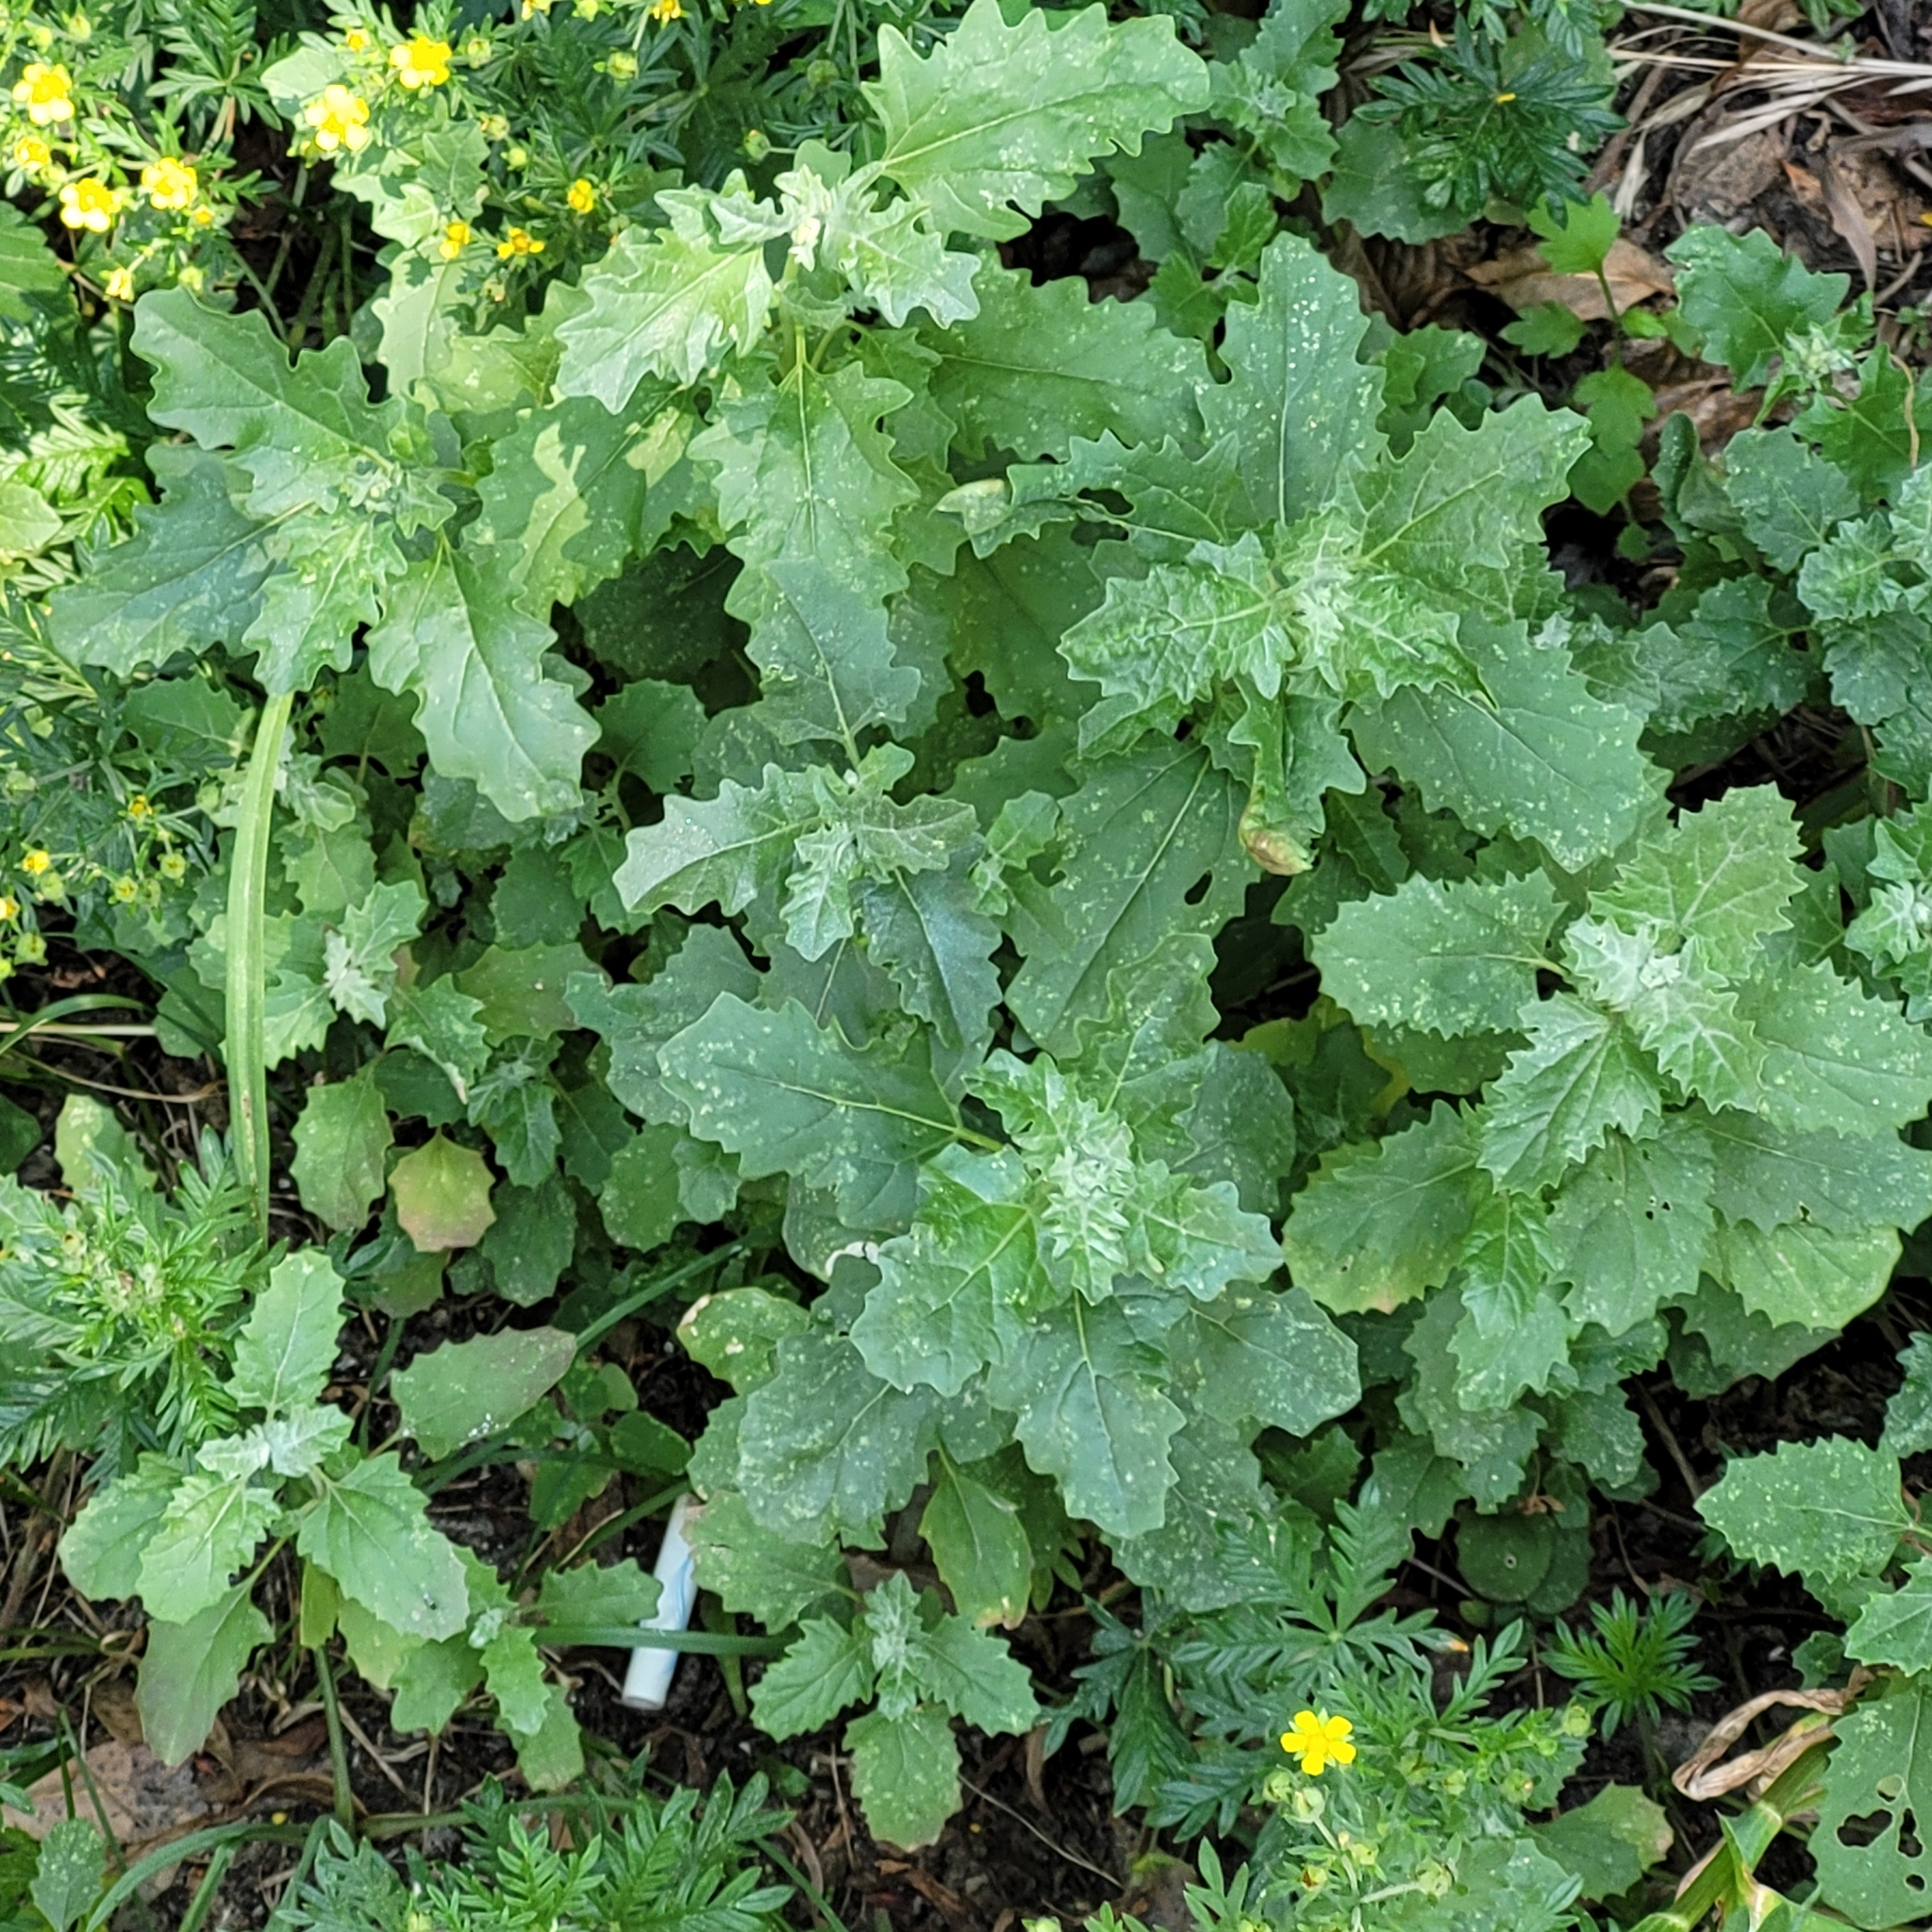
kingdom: Plantae
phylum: Tracheophyta
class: Magnoliopsida
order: Caryophyllales
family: Amaranthaceae
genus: Atriplex
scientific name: Atriplex tatarica
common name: Tatarian orache
